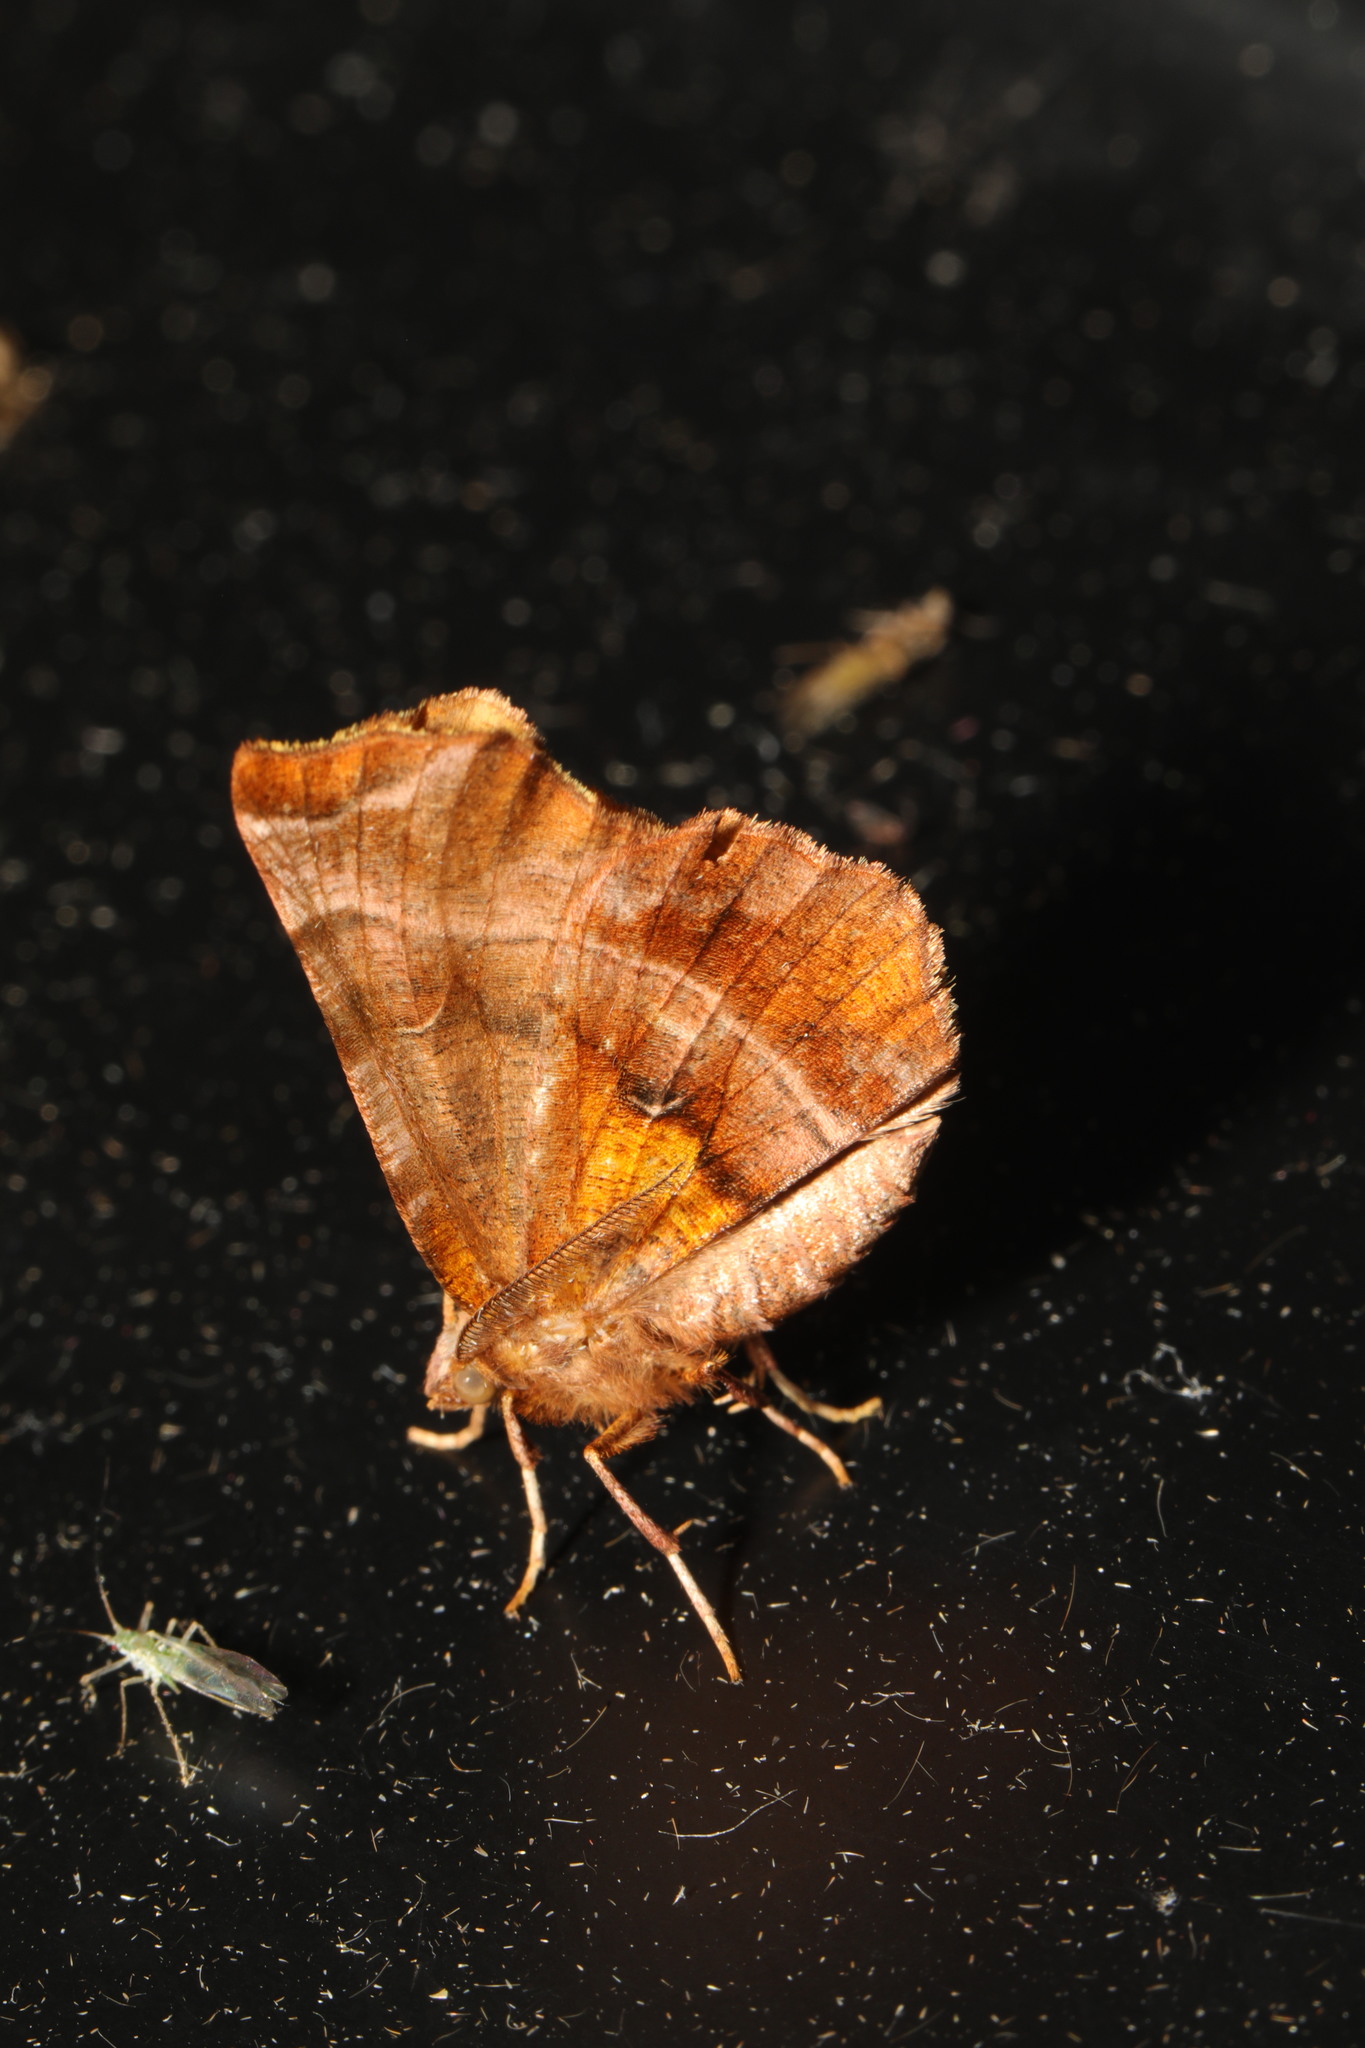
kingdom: Animalia
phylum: Arthropoda
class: Insecta
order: Lepidoptera
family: Geometridae
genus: Selenia
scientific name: Selenia dentaria
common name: Early thorn
